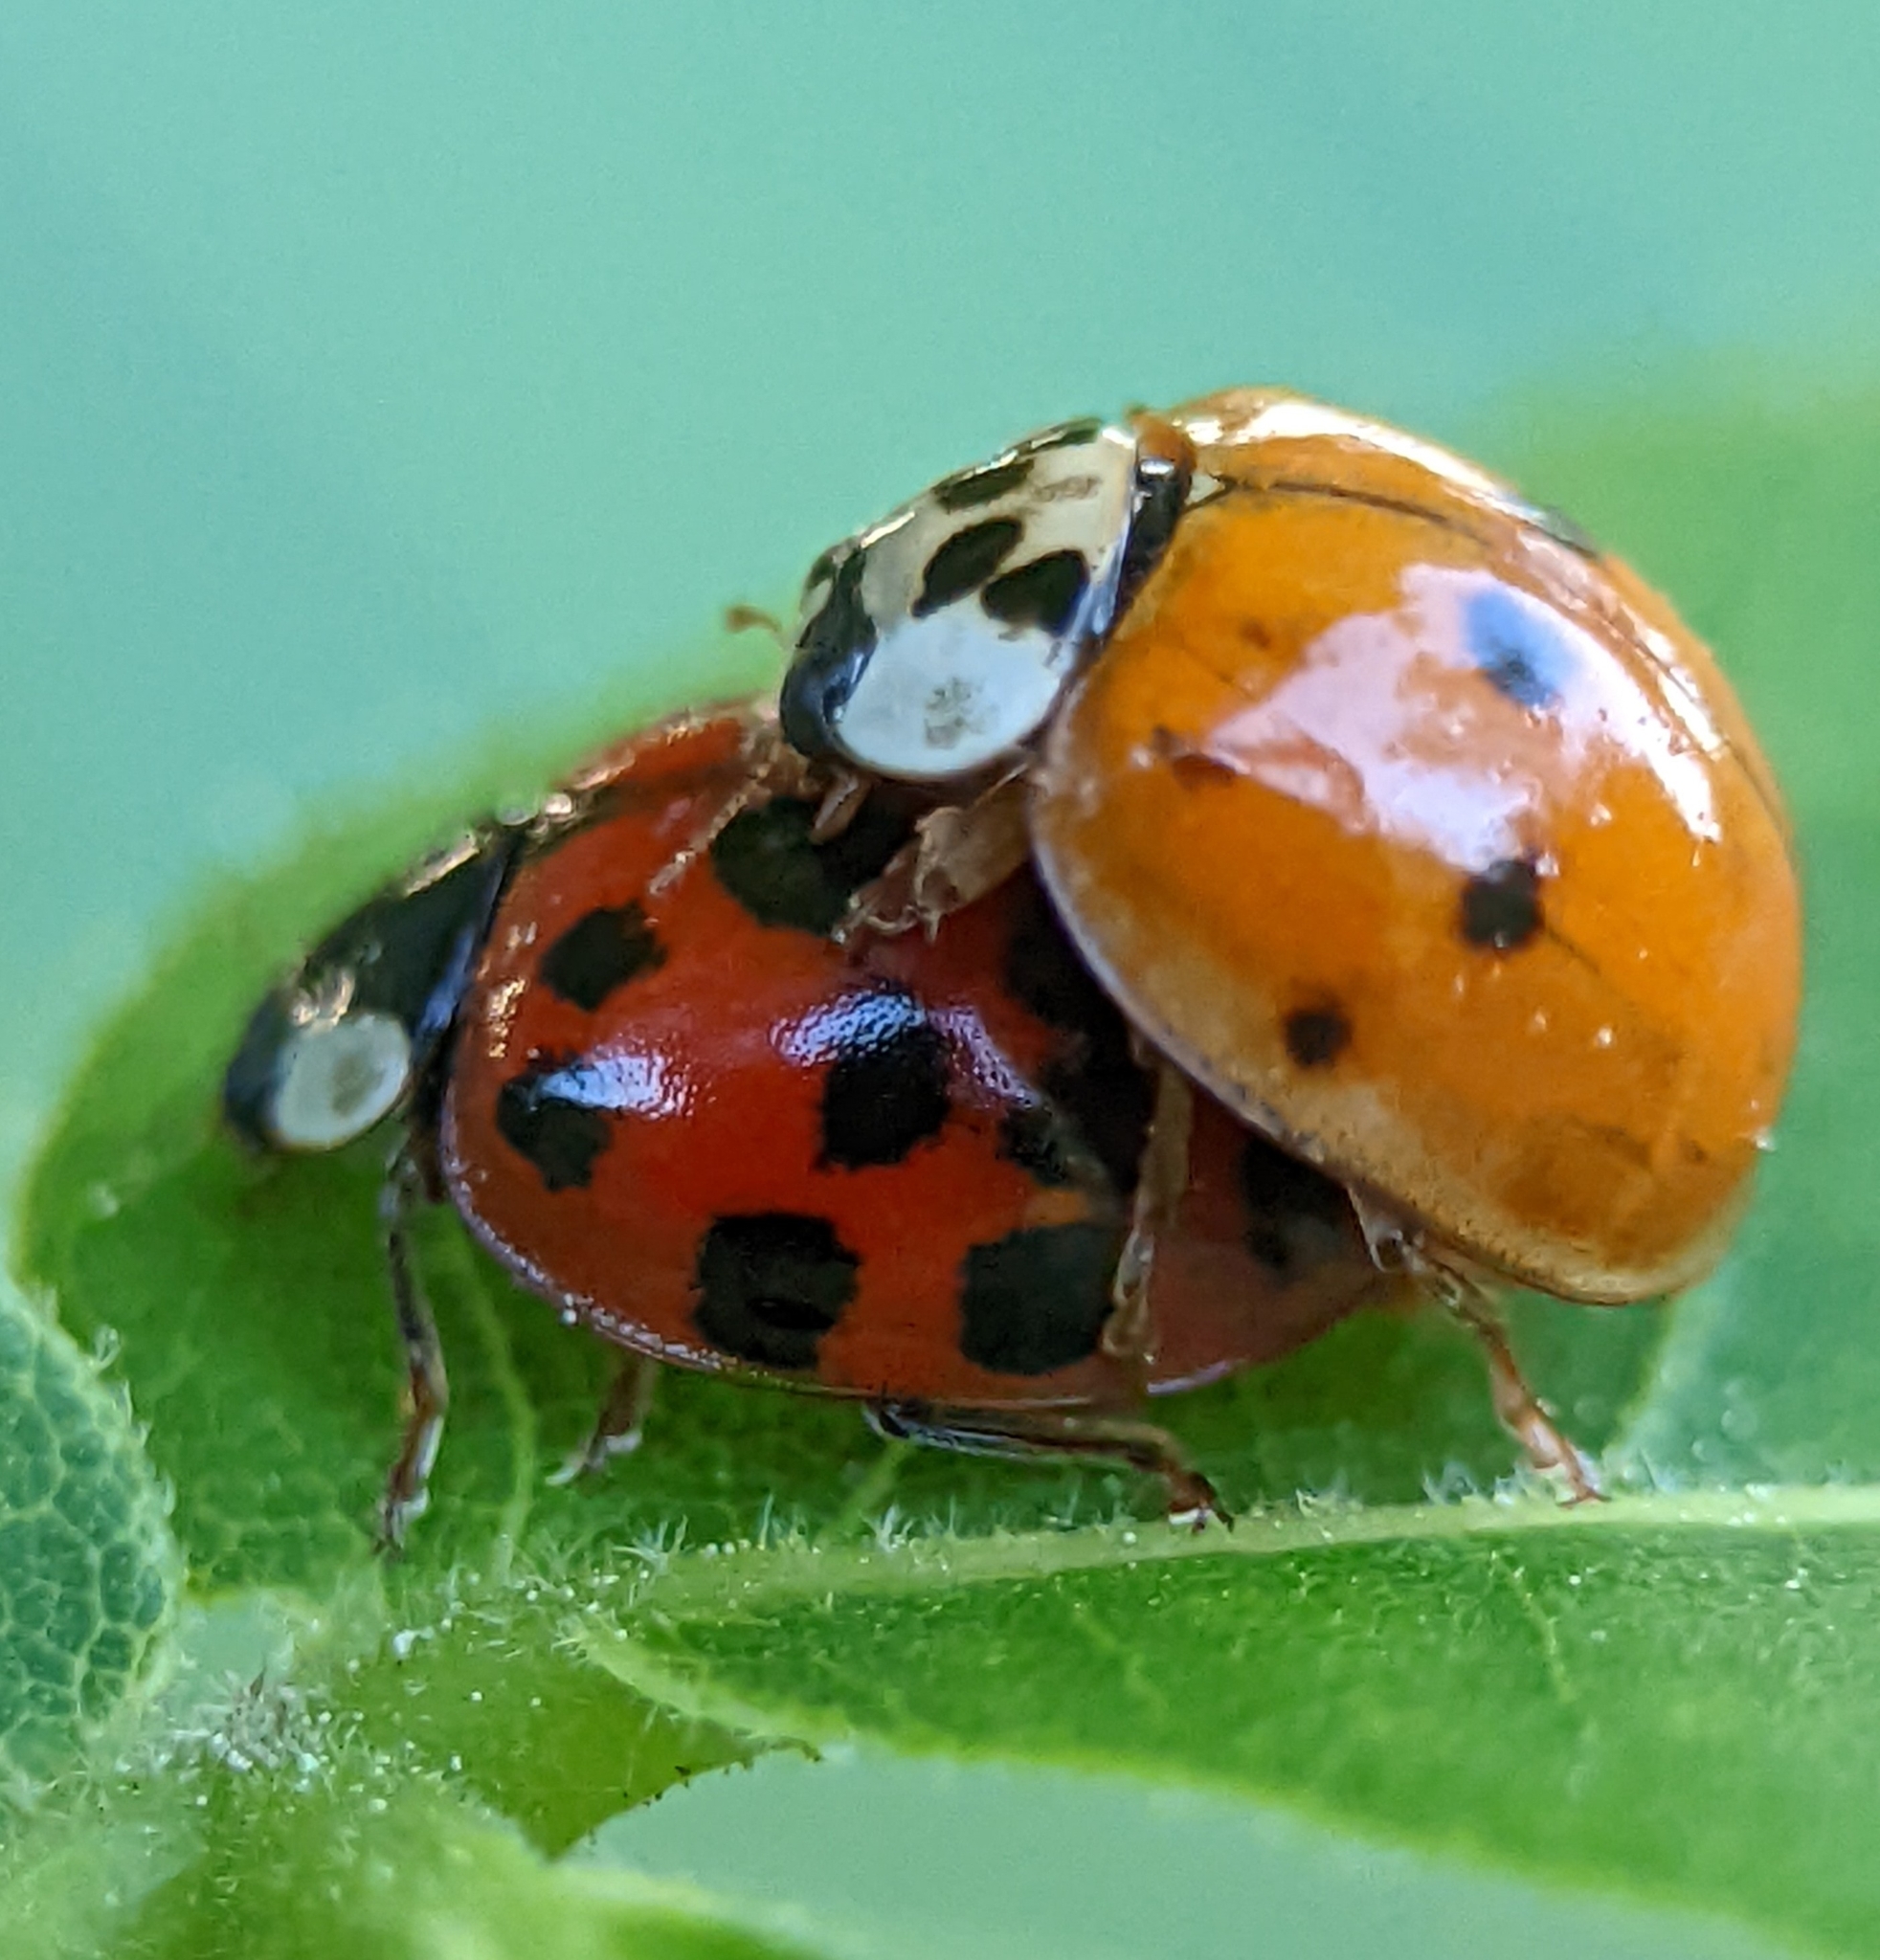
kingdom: Animalia
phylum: Arthropoda
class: Insecta
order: Coleoptera
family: Coccinellidae
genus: Harmonia
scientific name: Harmonia axyridis
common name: Harlequin ladybird
